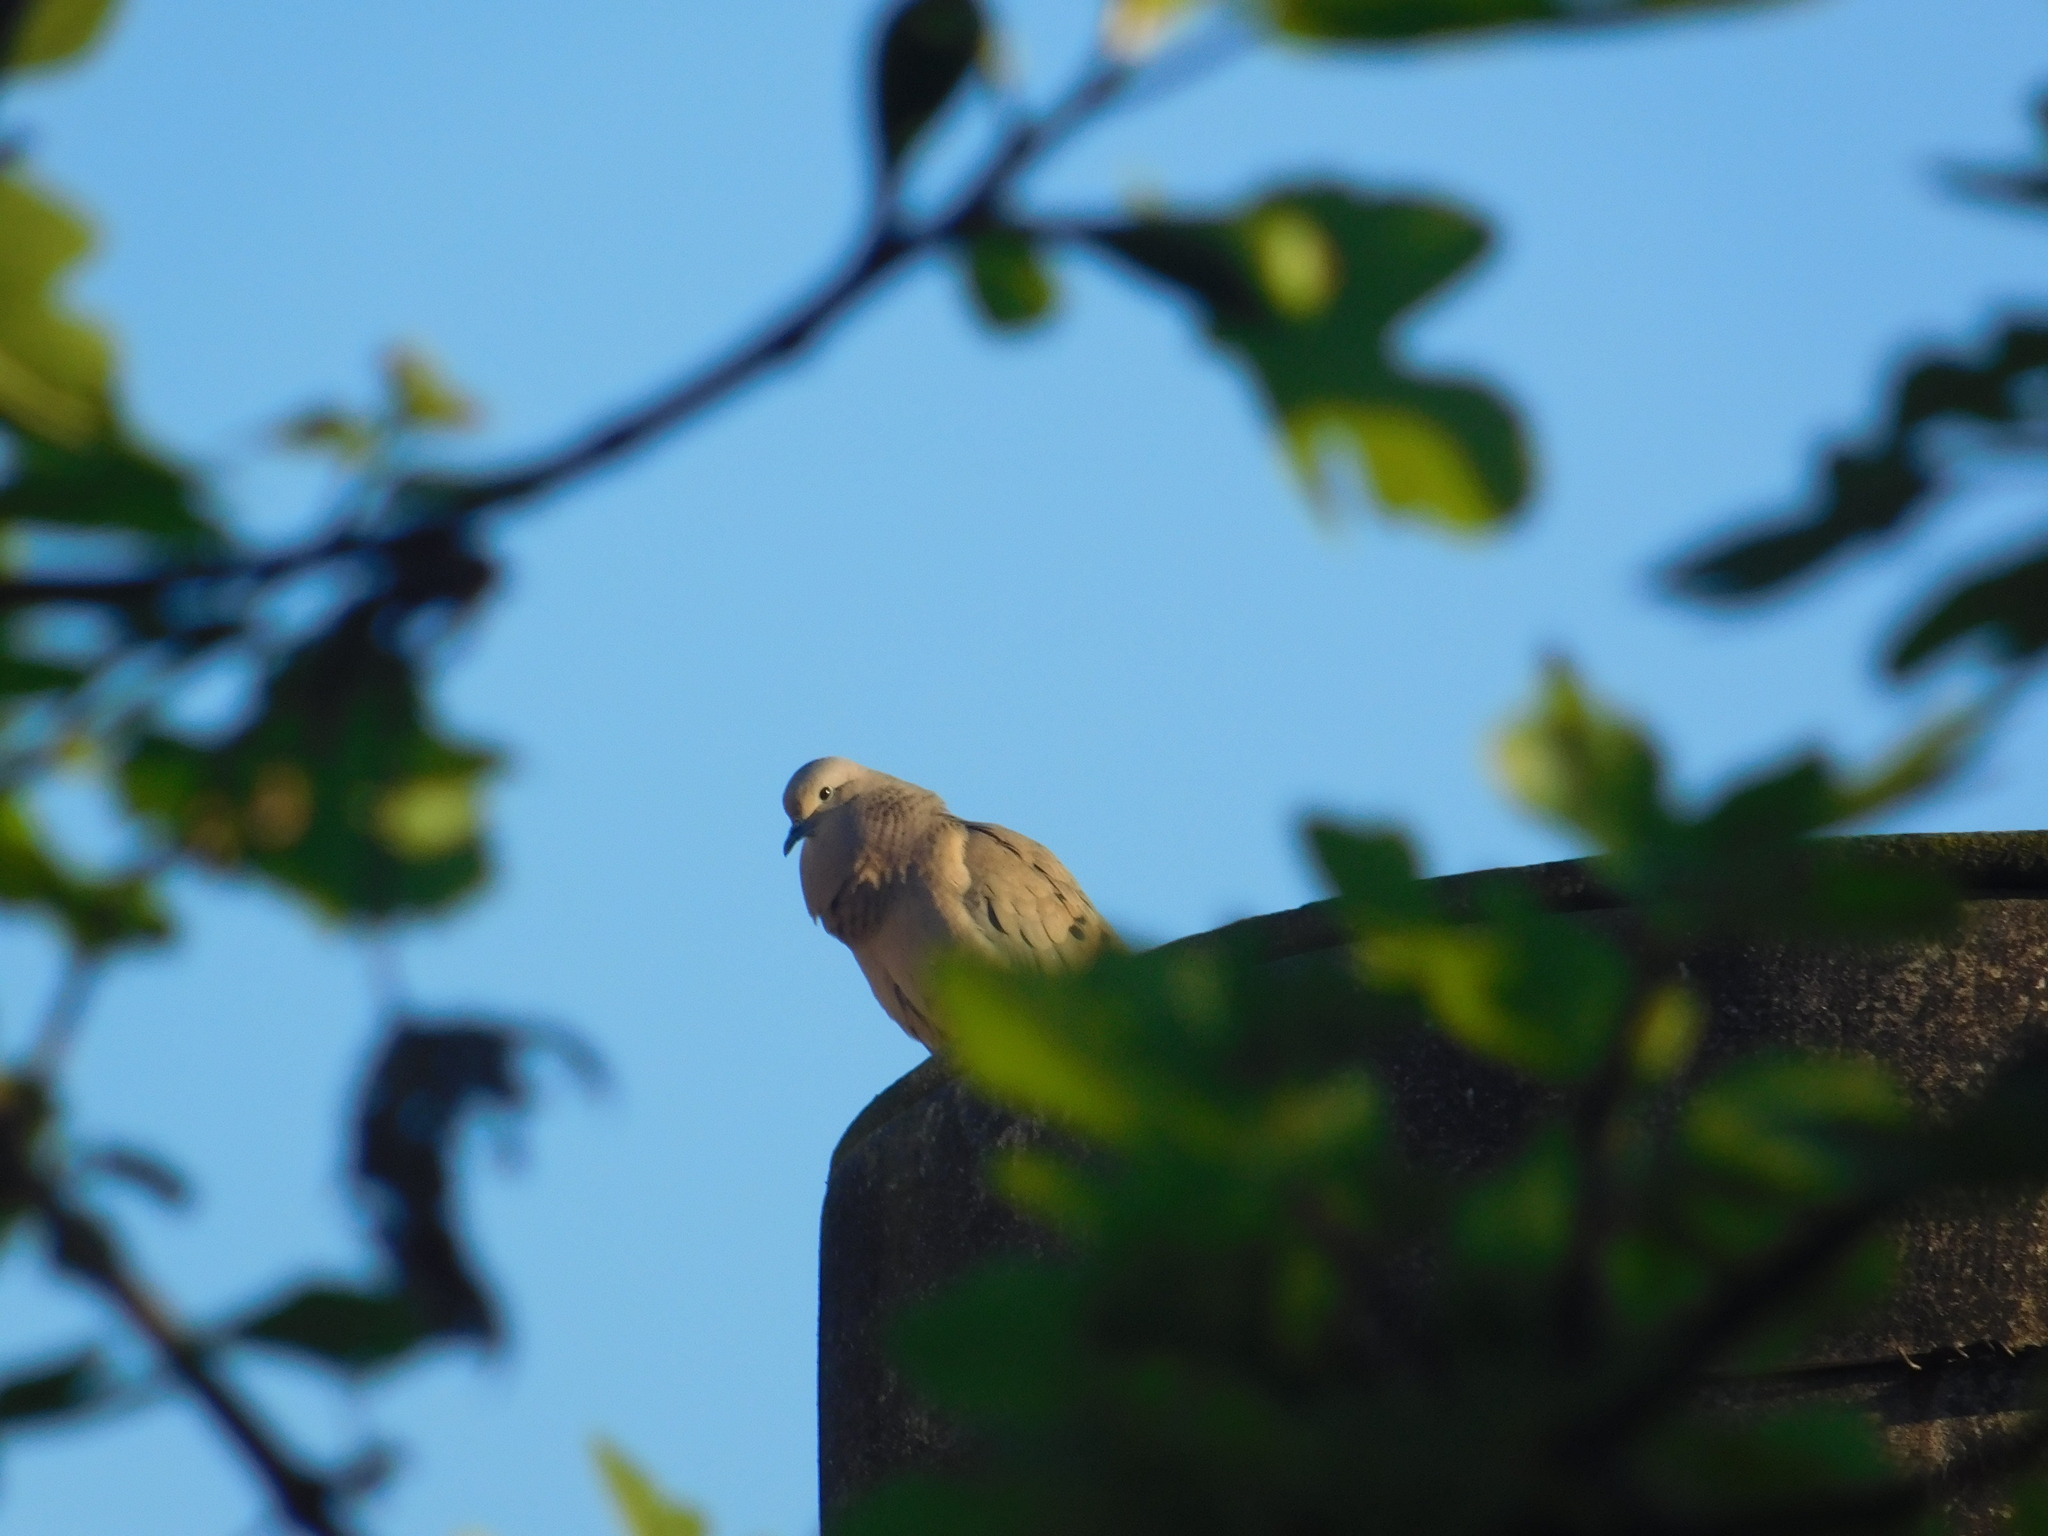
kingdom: Animalia
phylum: Chordata
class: Aves
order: Columbiformes
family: Columbidae
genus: Zenaida
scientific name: Zenaida auriculata
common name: Eared dove
